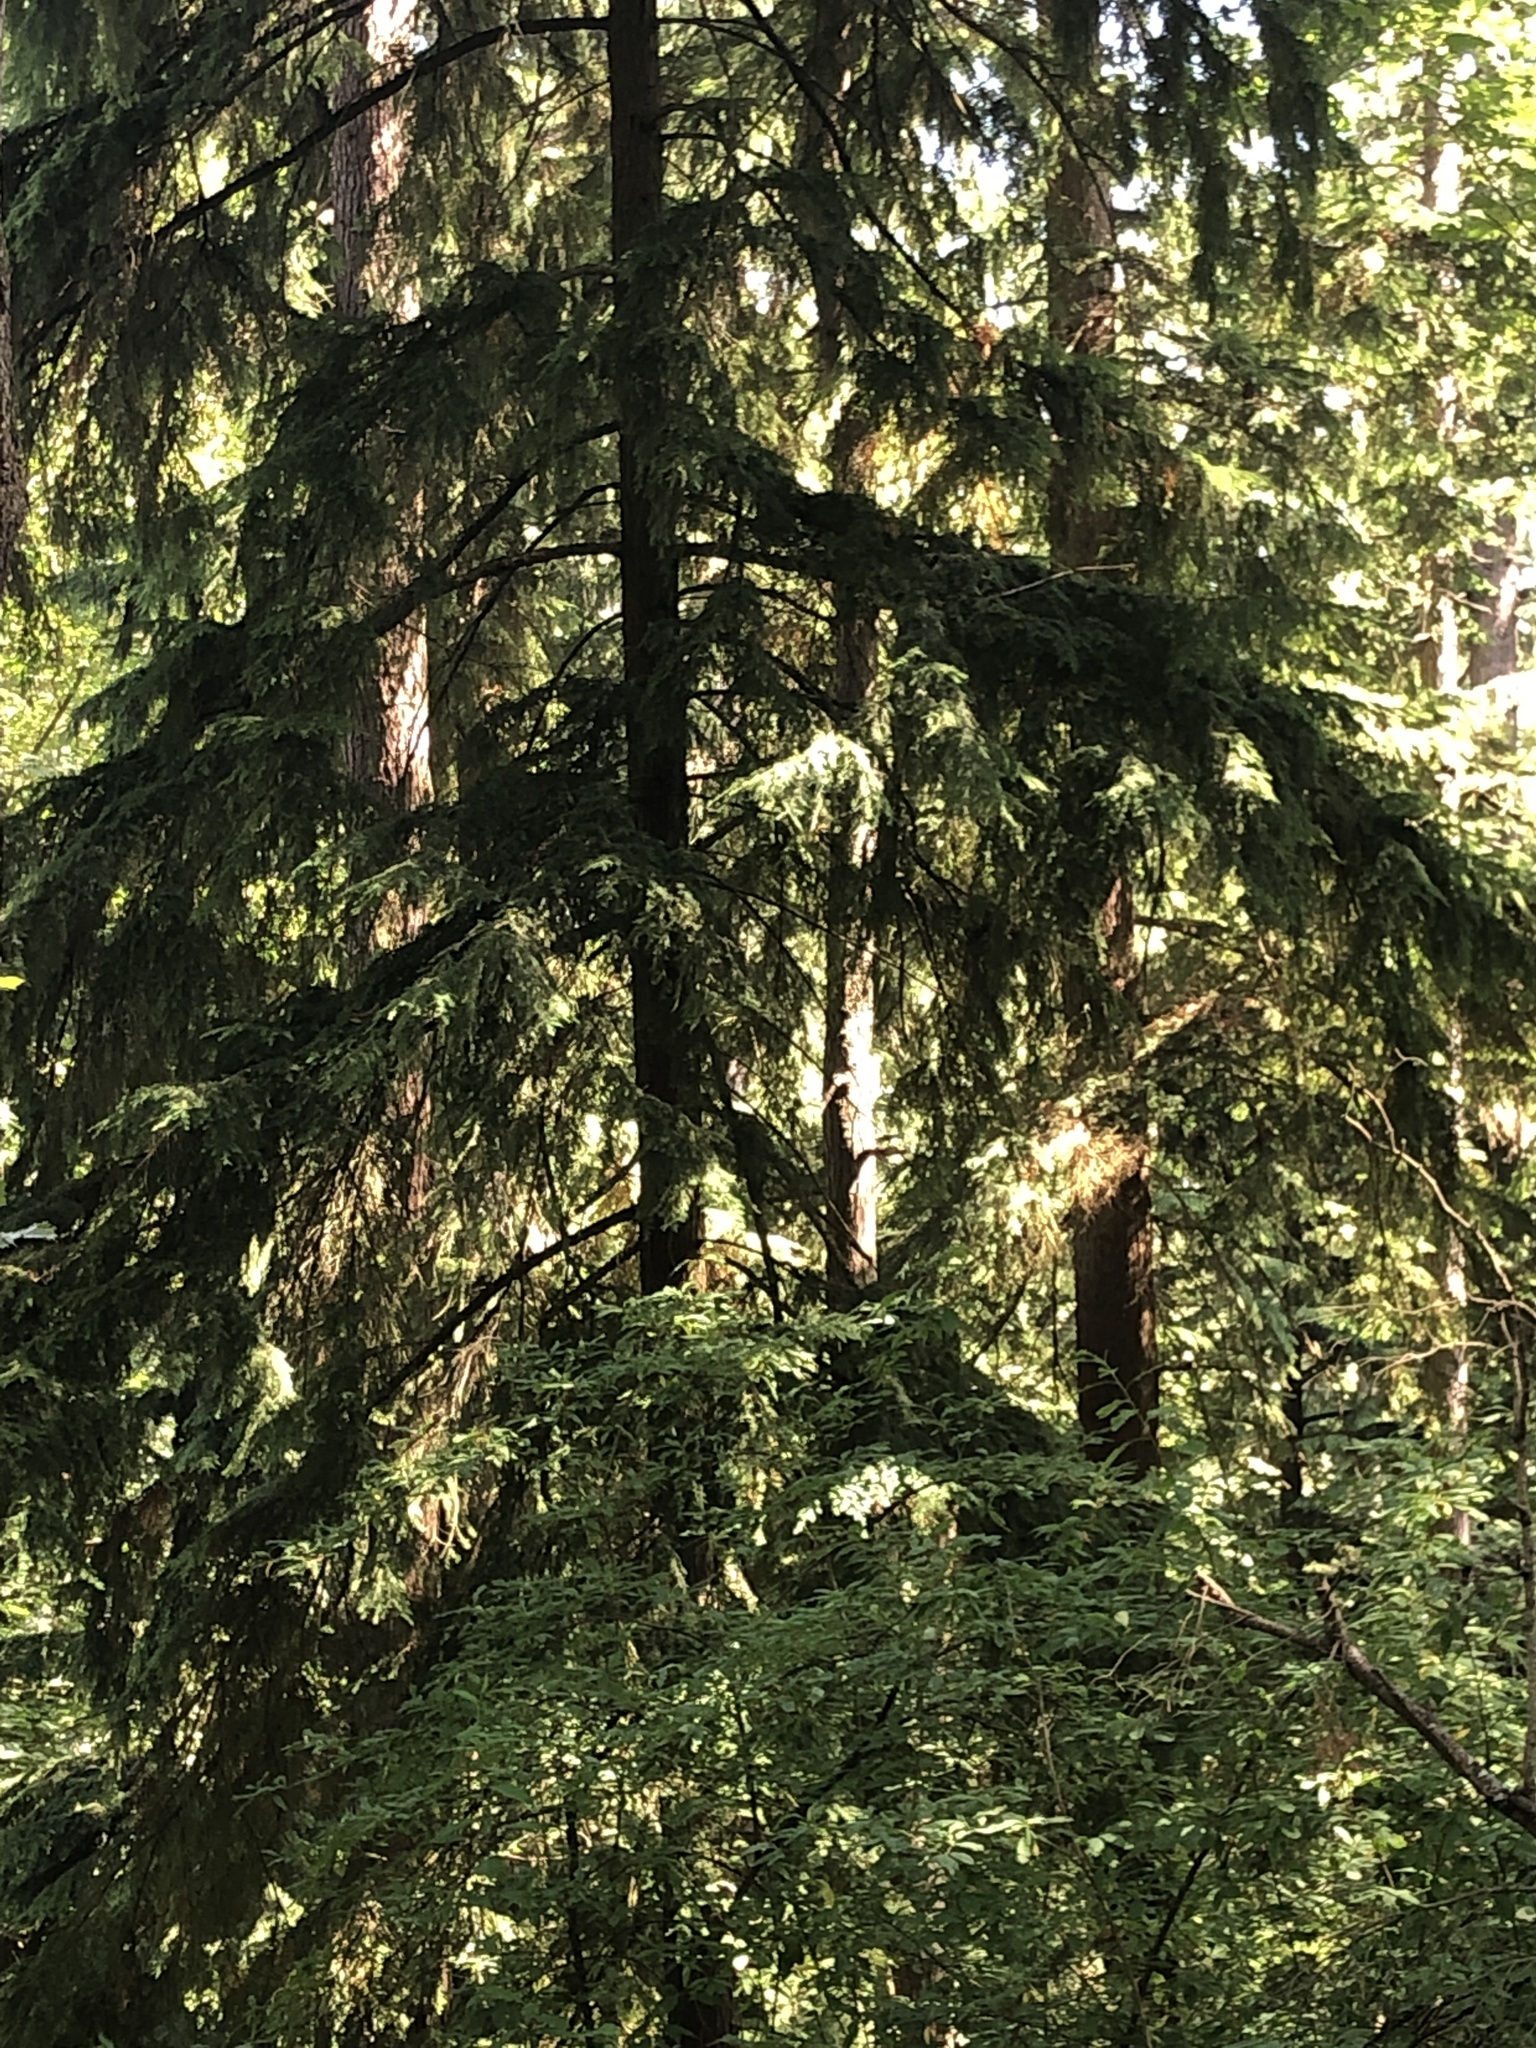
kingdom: Plantae
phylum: Tracheophyta
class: Pinopsida
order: Pinales
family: Pinaceae
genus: Tsuga
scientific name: Tsuga heterophylla
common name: Western hemlock
